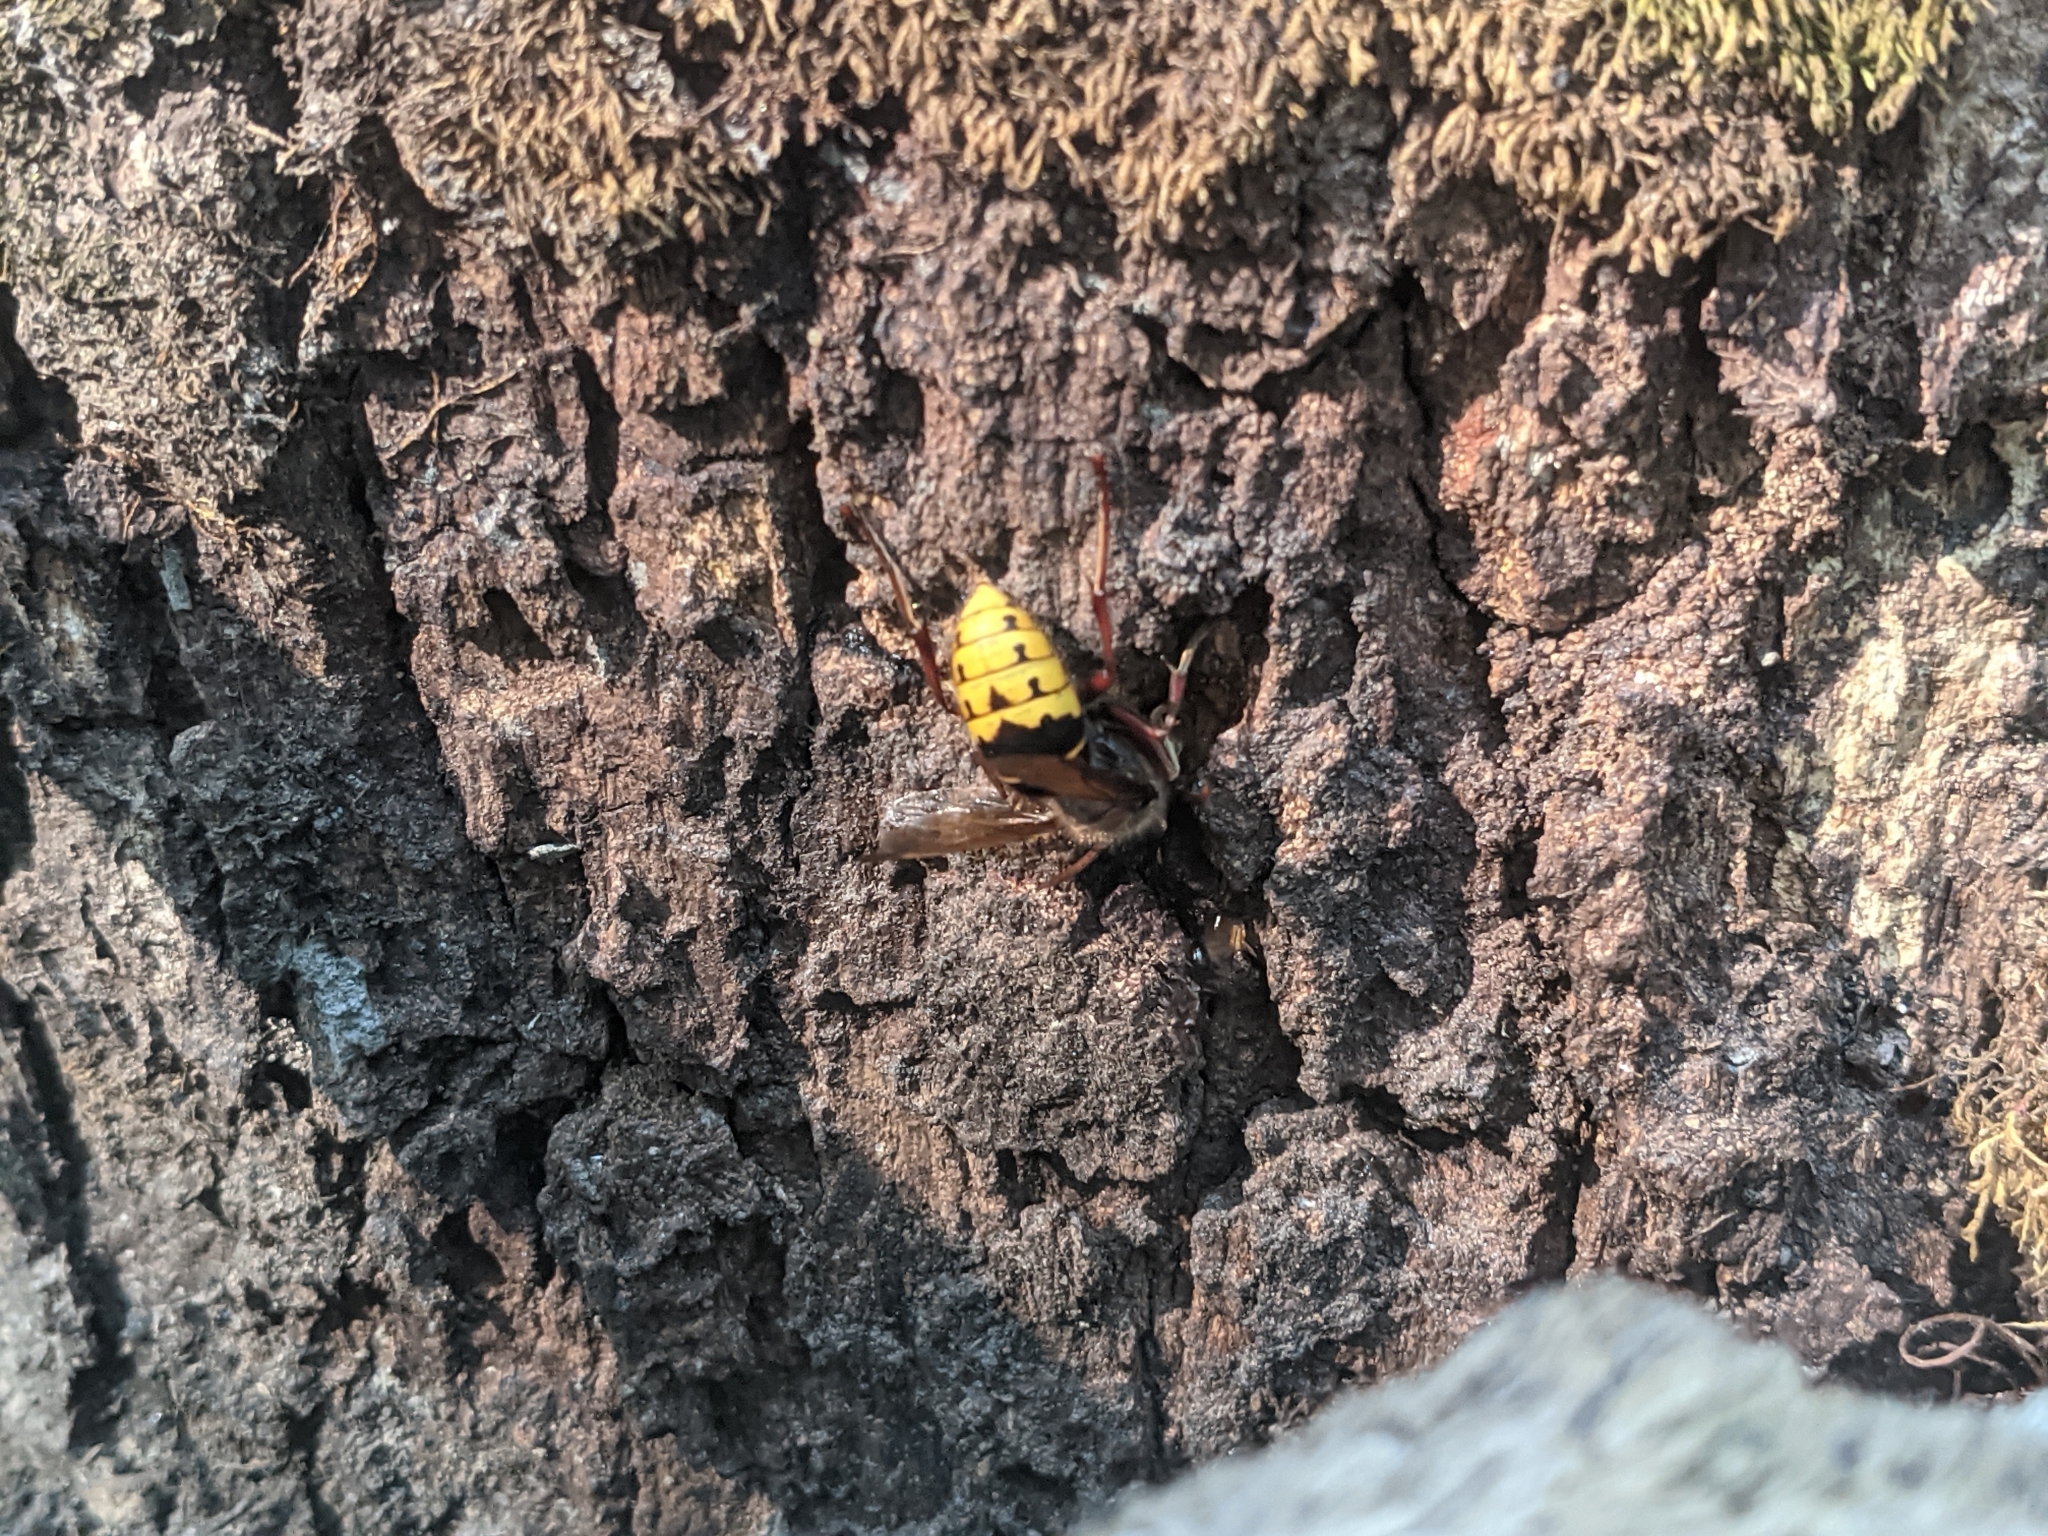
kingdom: Animalia
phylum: Arthropoda
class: Insecta
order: Hymenoptera
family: Vespidae
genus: Vespa
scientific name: Vespa crabro
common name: Hornet
